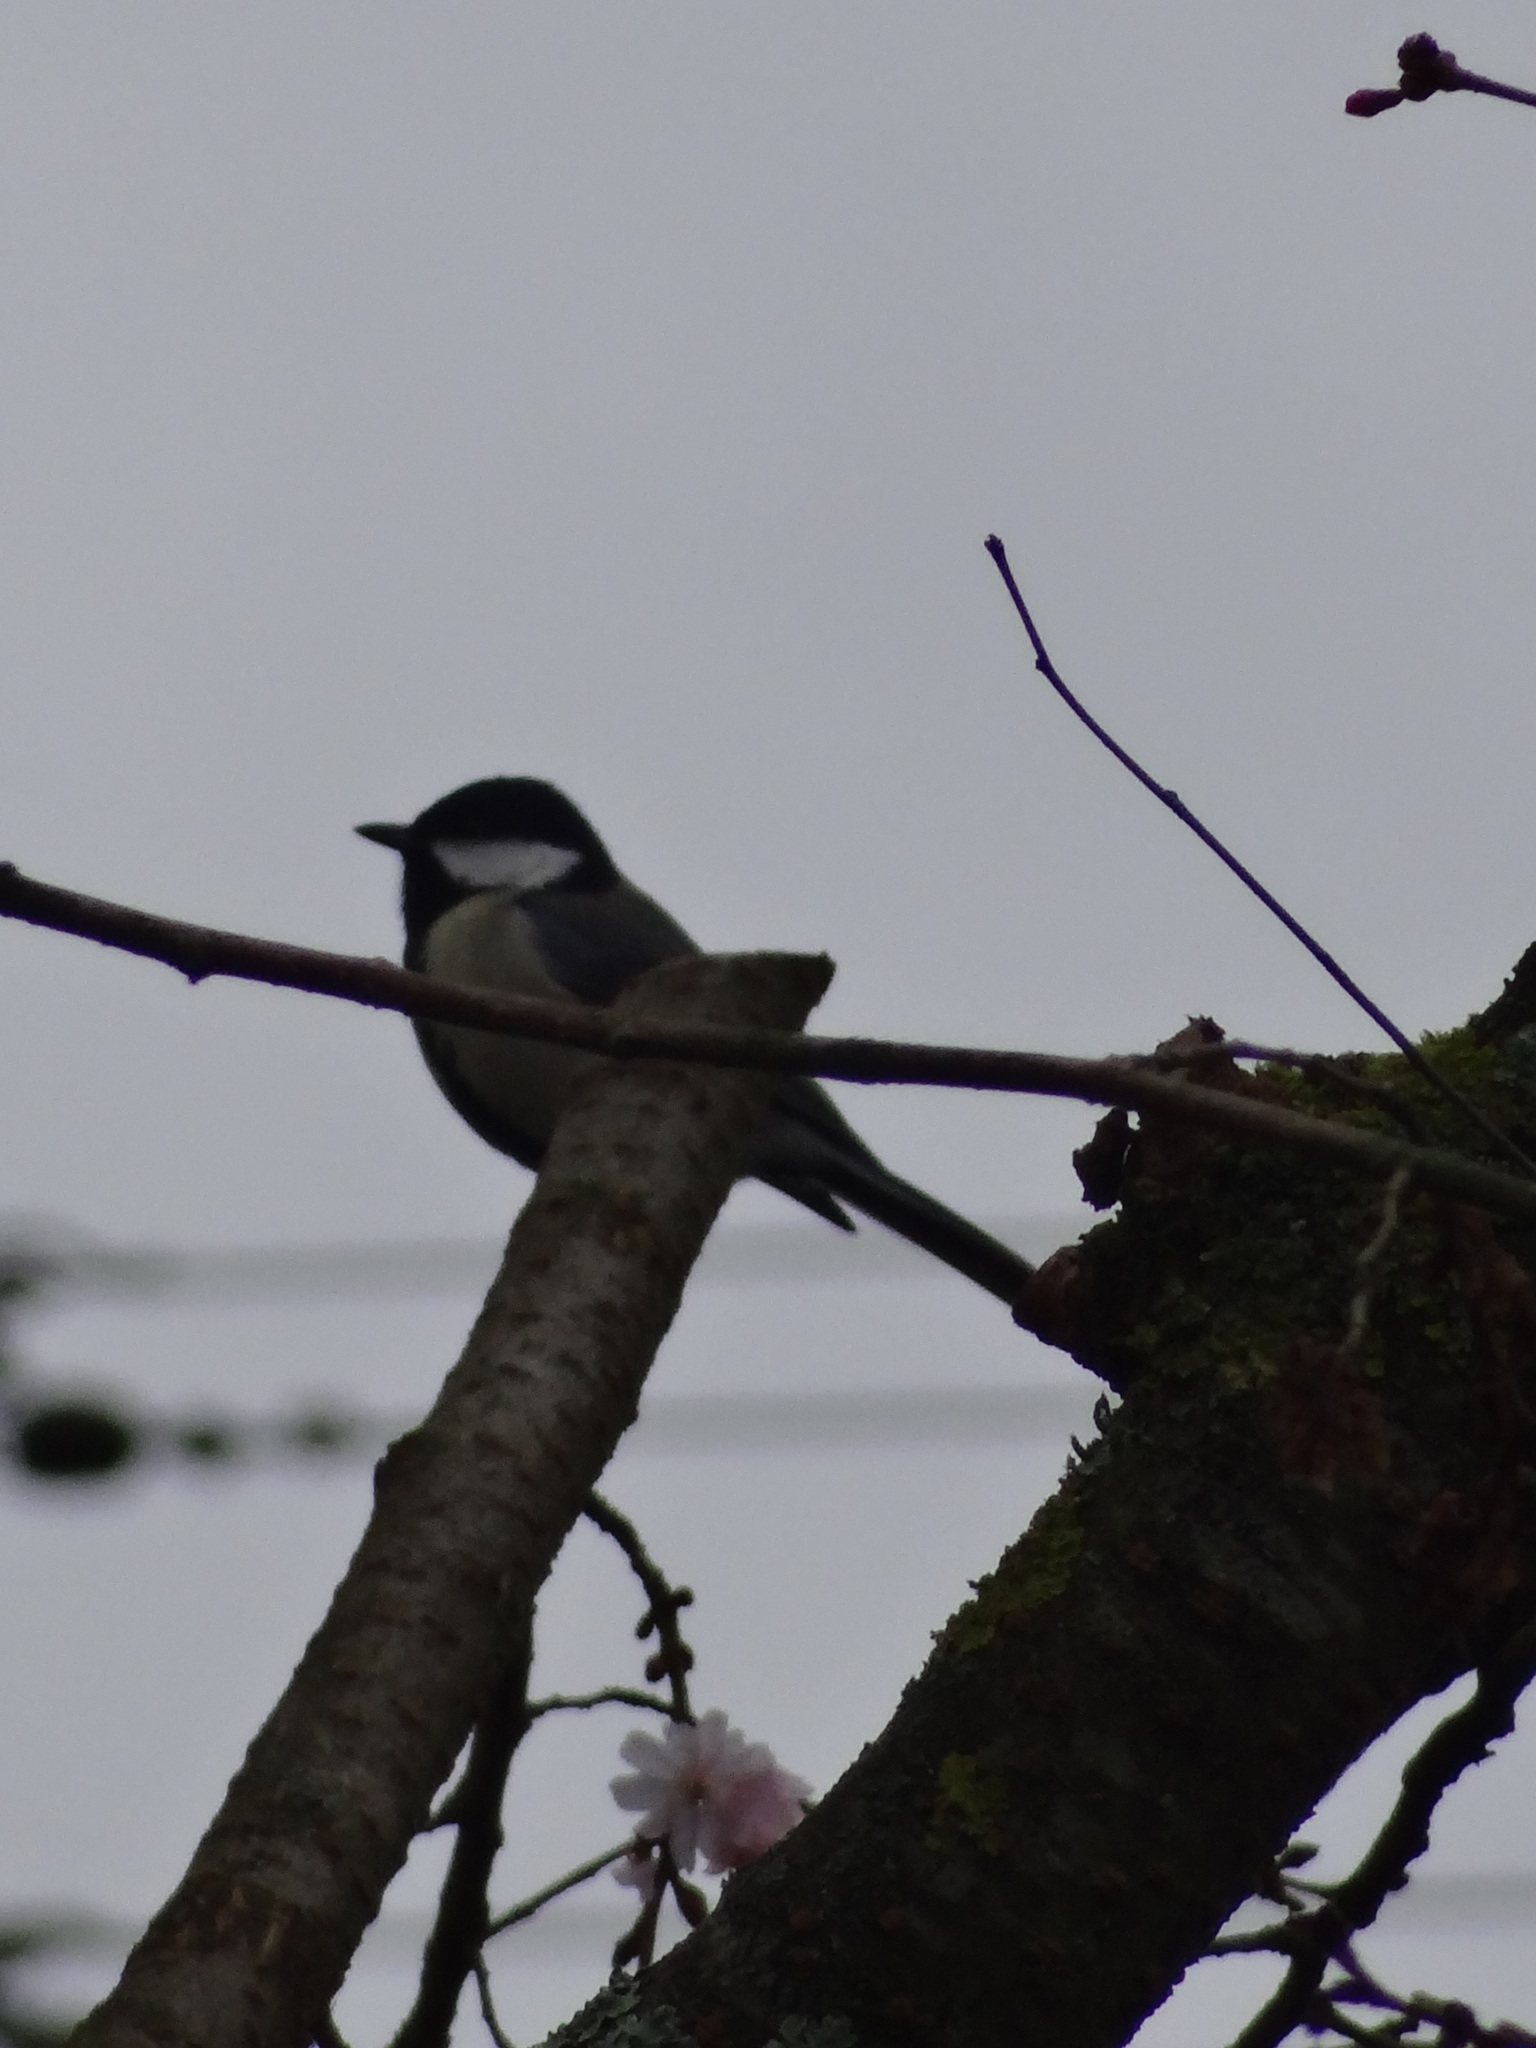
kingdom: Animalia
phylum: Chordata
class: Aves
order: Passeriformes
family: Paridae
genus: Parus
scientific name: Parus major
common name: Great tit
